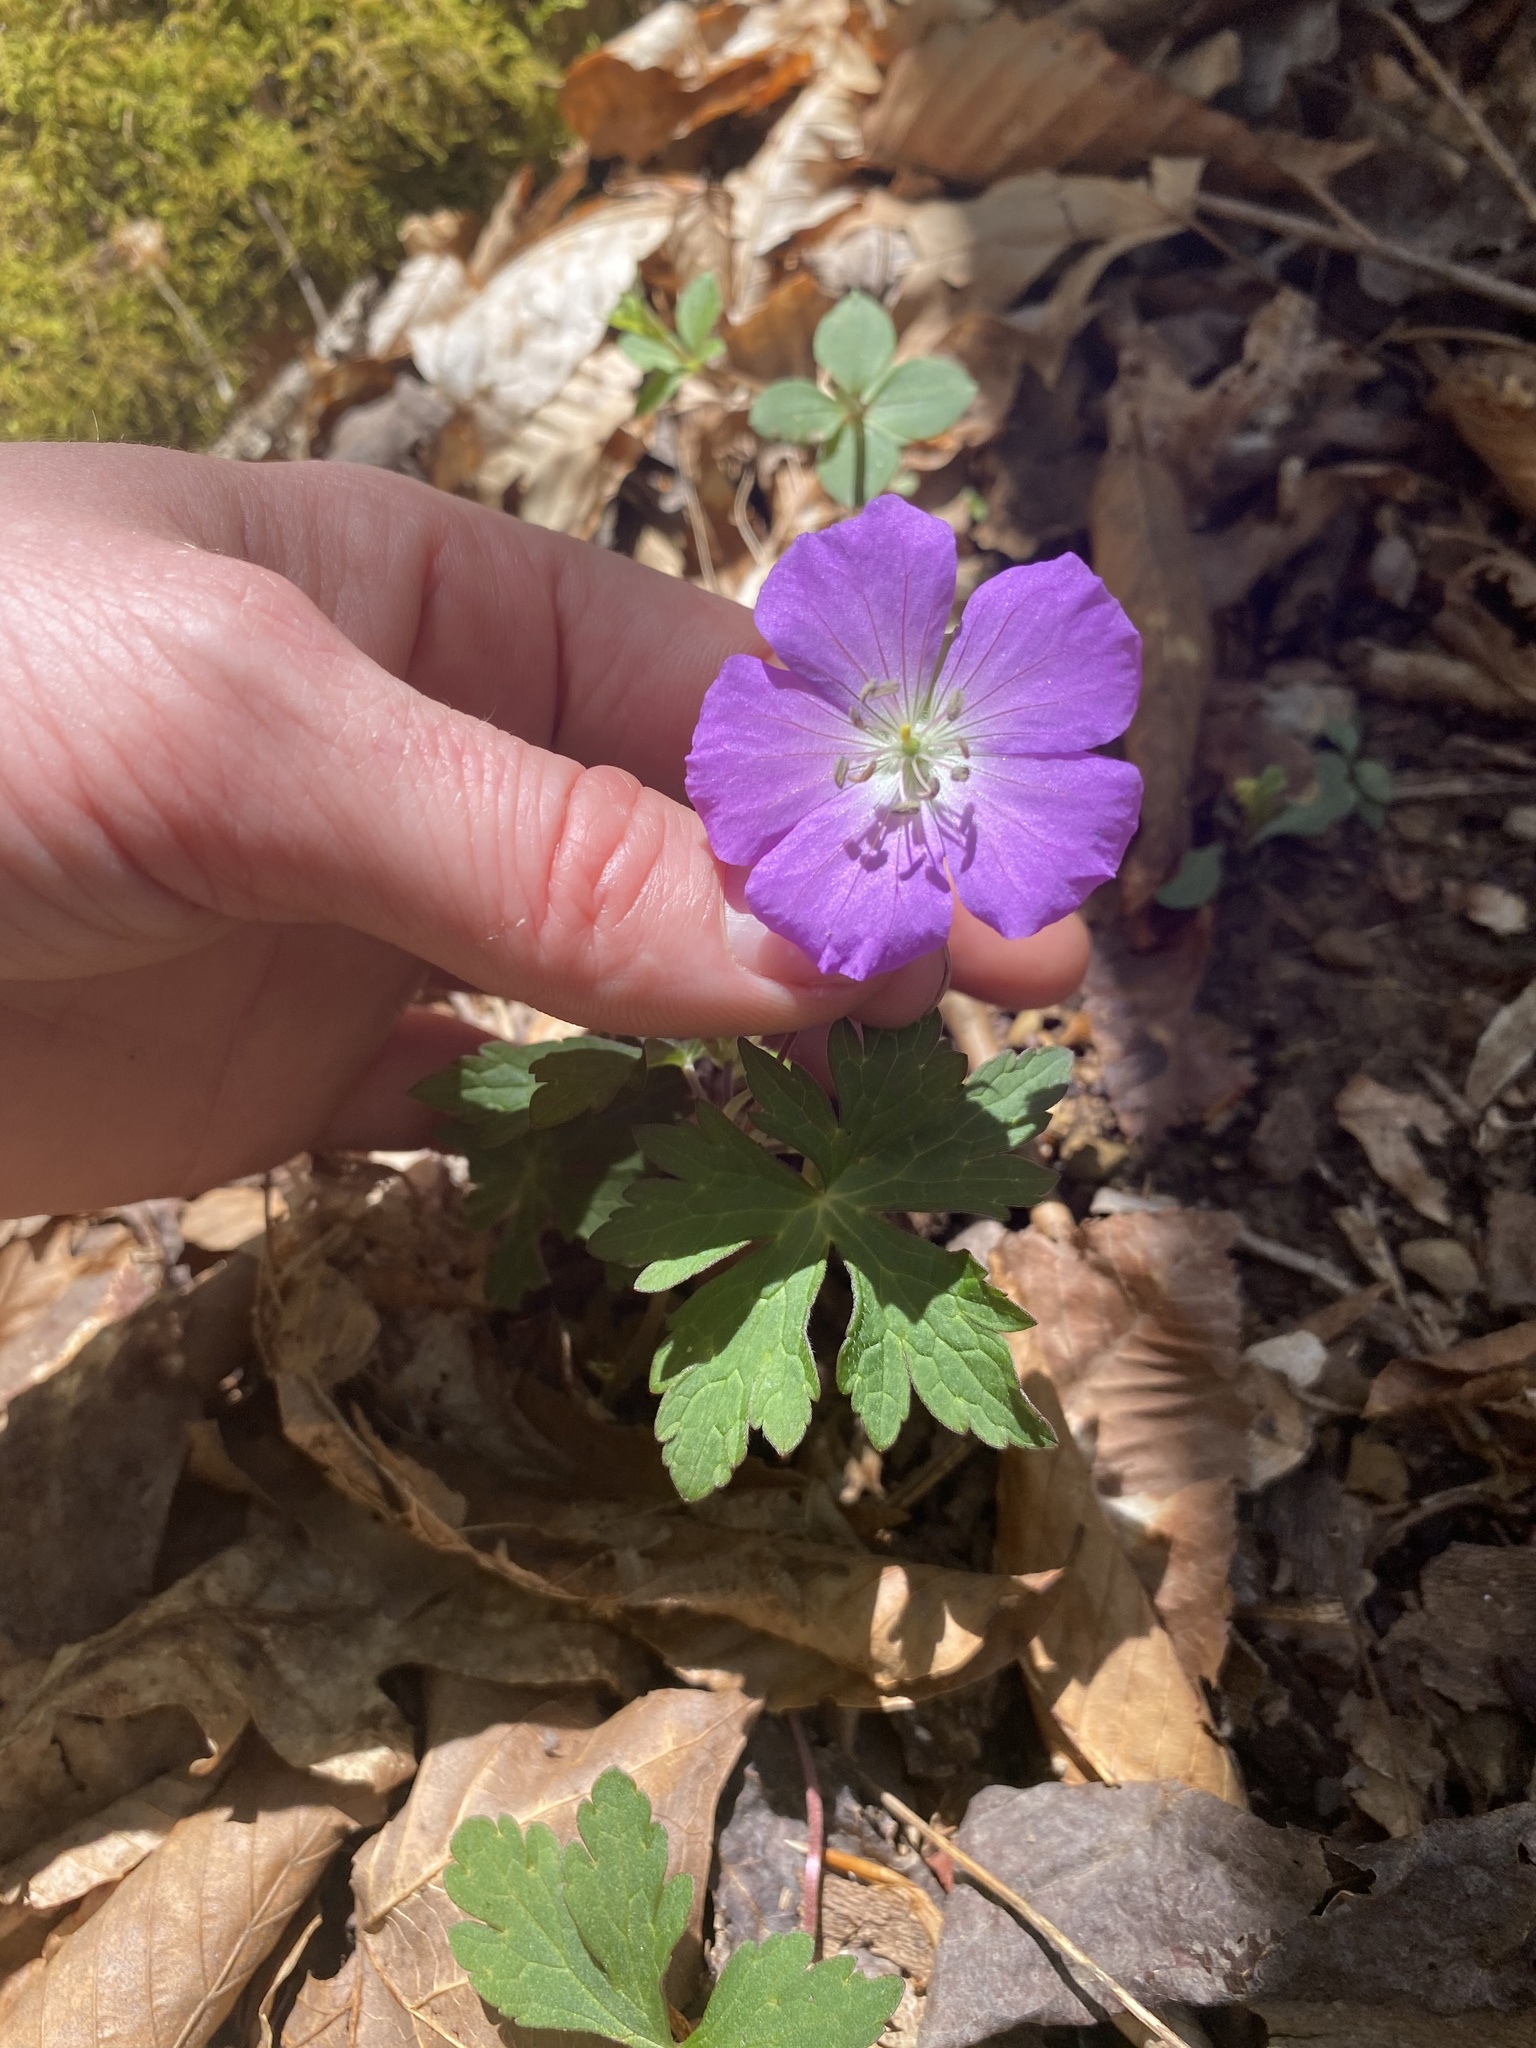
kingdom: Plantae
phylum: Tracheophyta
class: Magnoliopsida
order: Geraniales
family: Geraniaceae
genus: Geranium
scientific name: Geranium maculatum
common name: Spotted geranium
